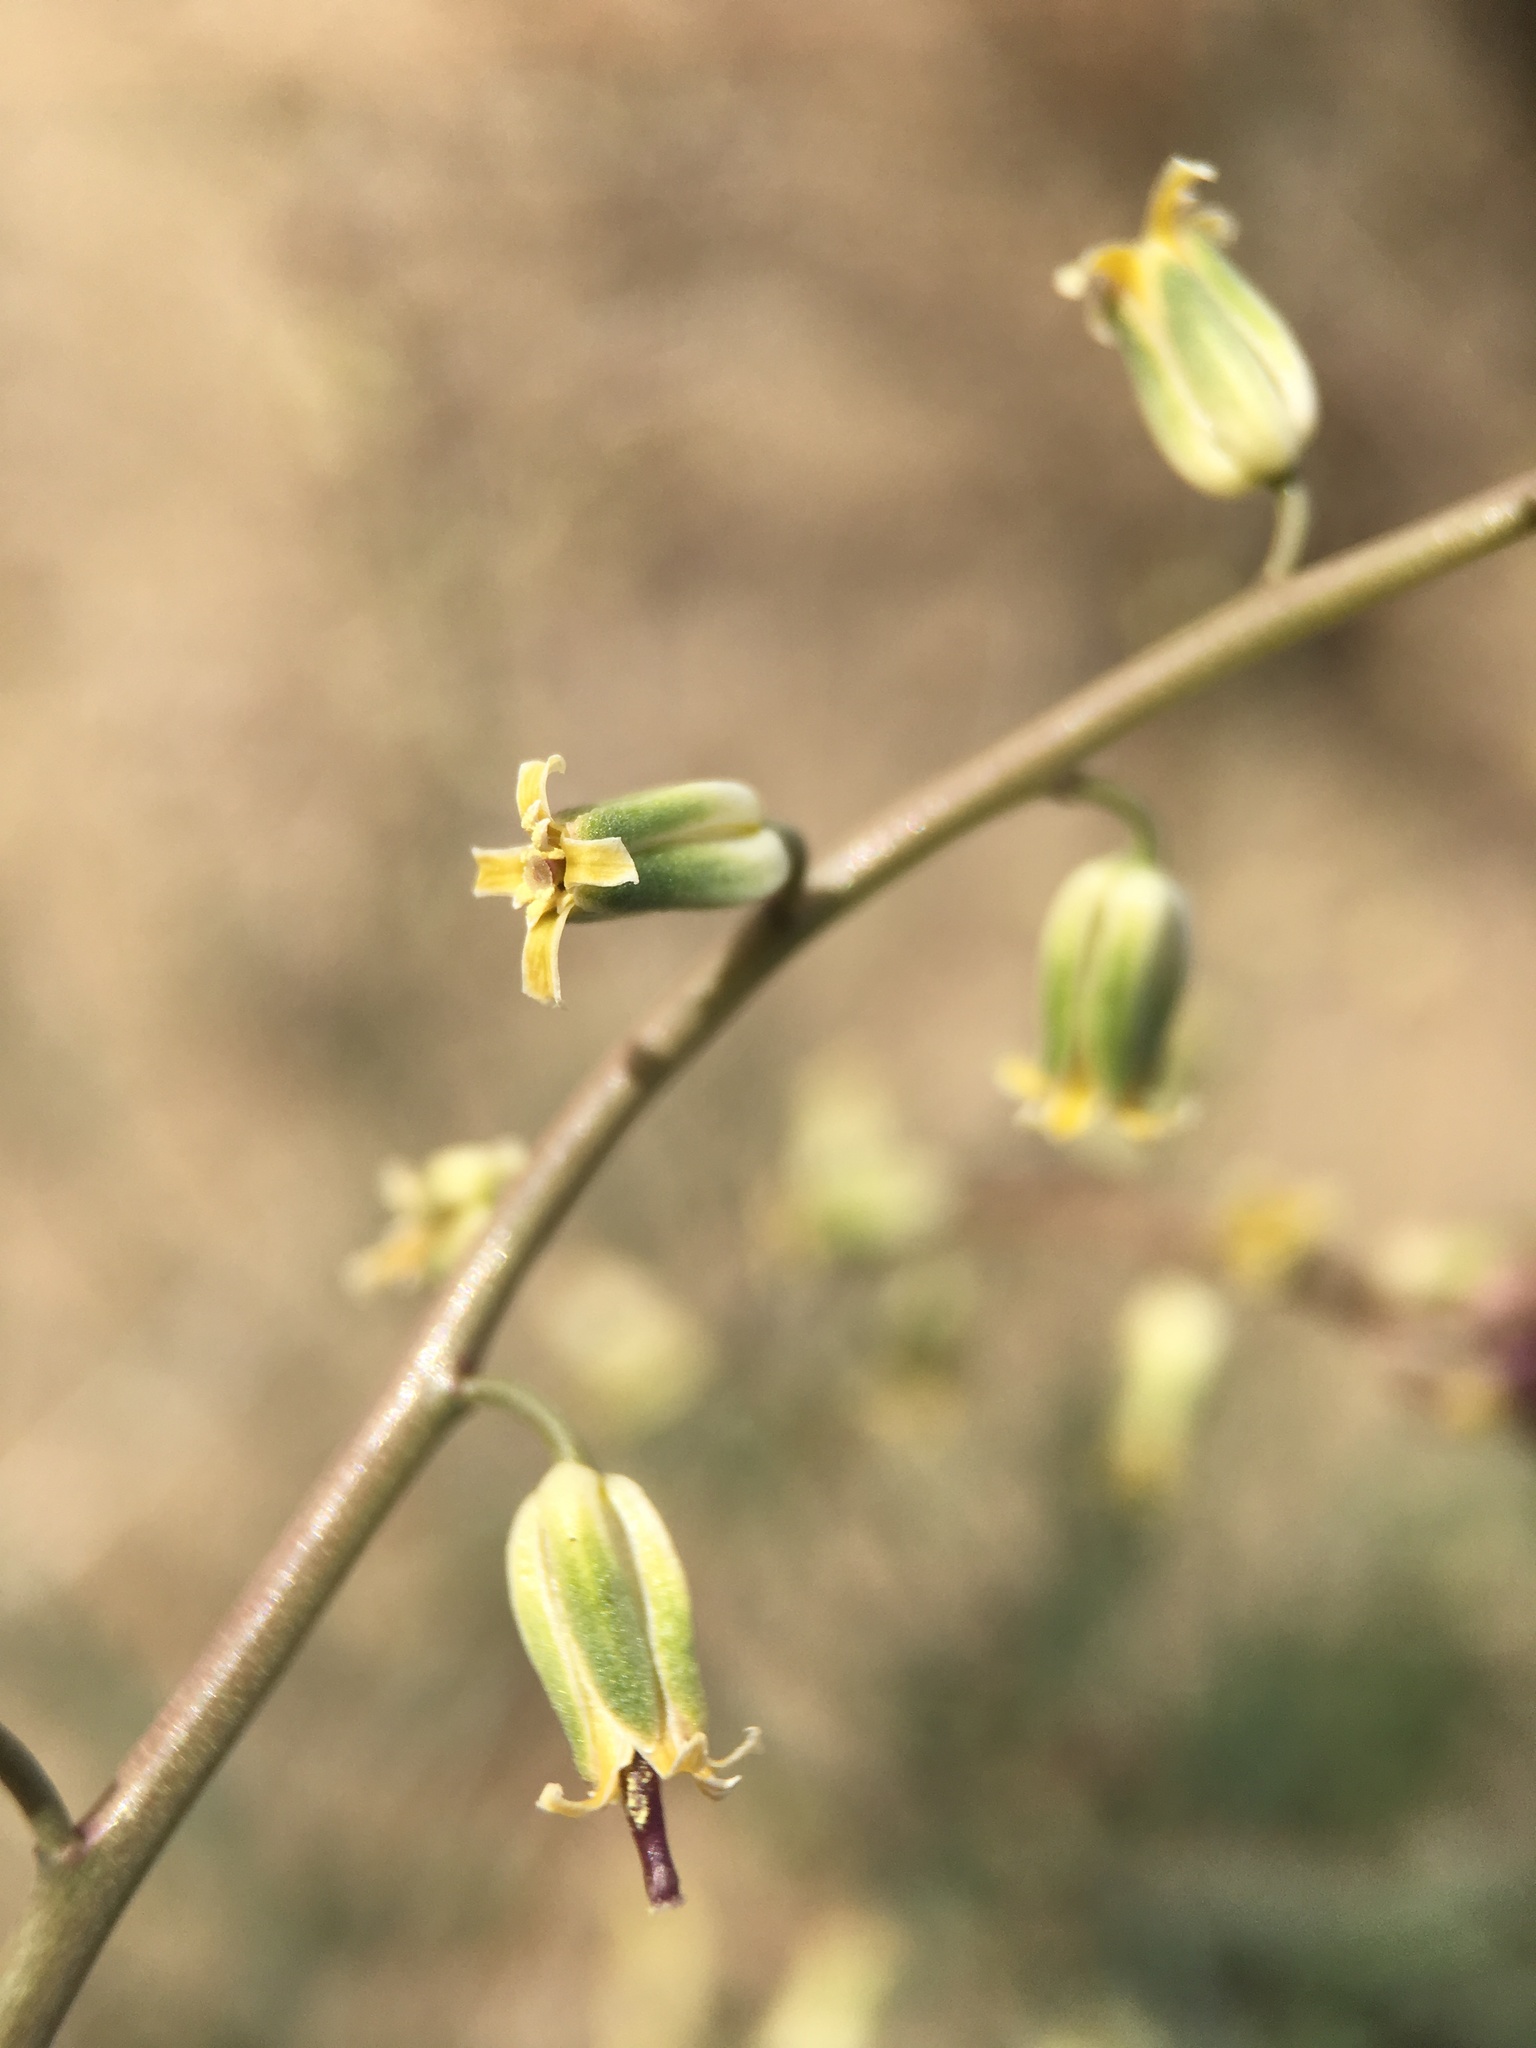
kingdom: Plantae
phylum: Tracheophyta
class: Magnoliopsida
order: Brassicales
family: Brassicaceae
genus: Streptanthus
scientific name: Streptanthus longirostris
